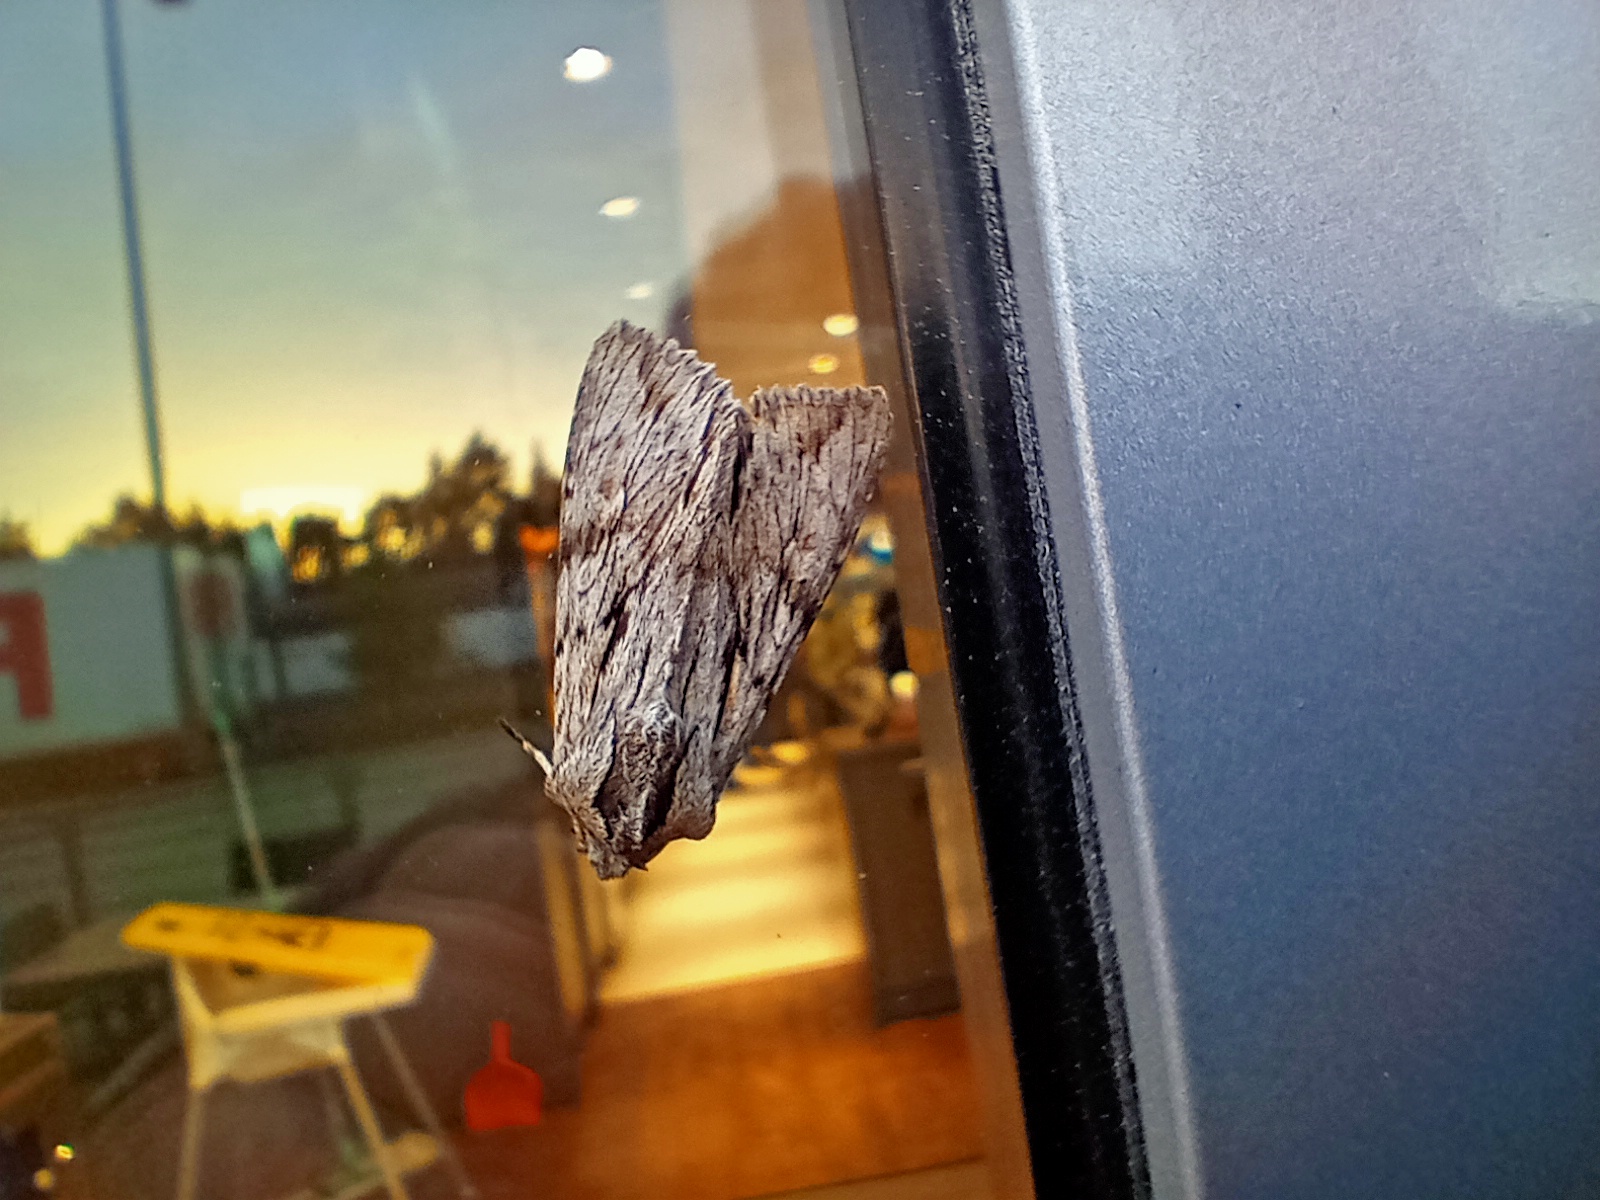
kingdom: Animalia
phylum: Arthropoda
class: Insecta
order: Lepidoptera
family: Noctuidae
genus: Auchmis
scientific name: Auchmis detersa
